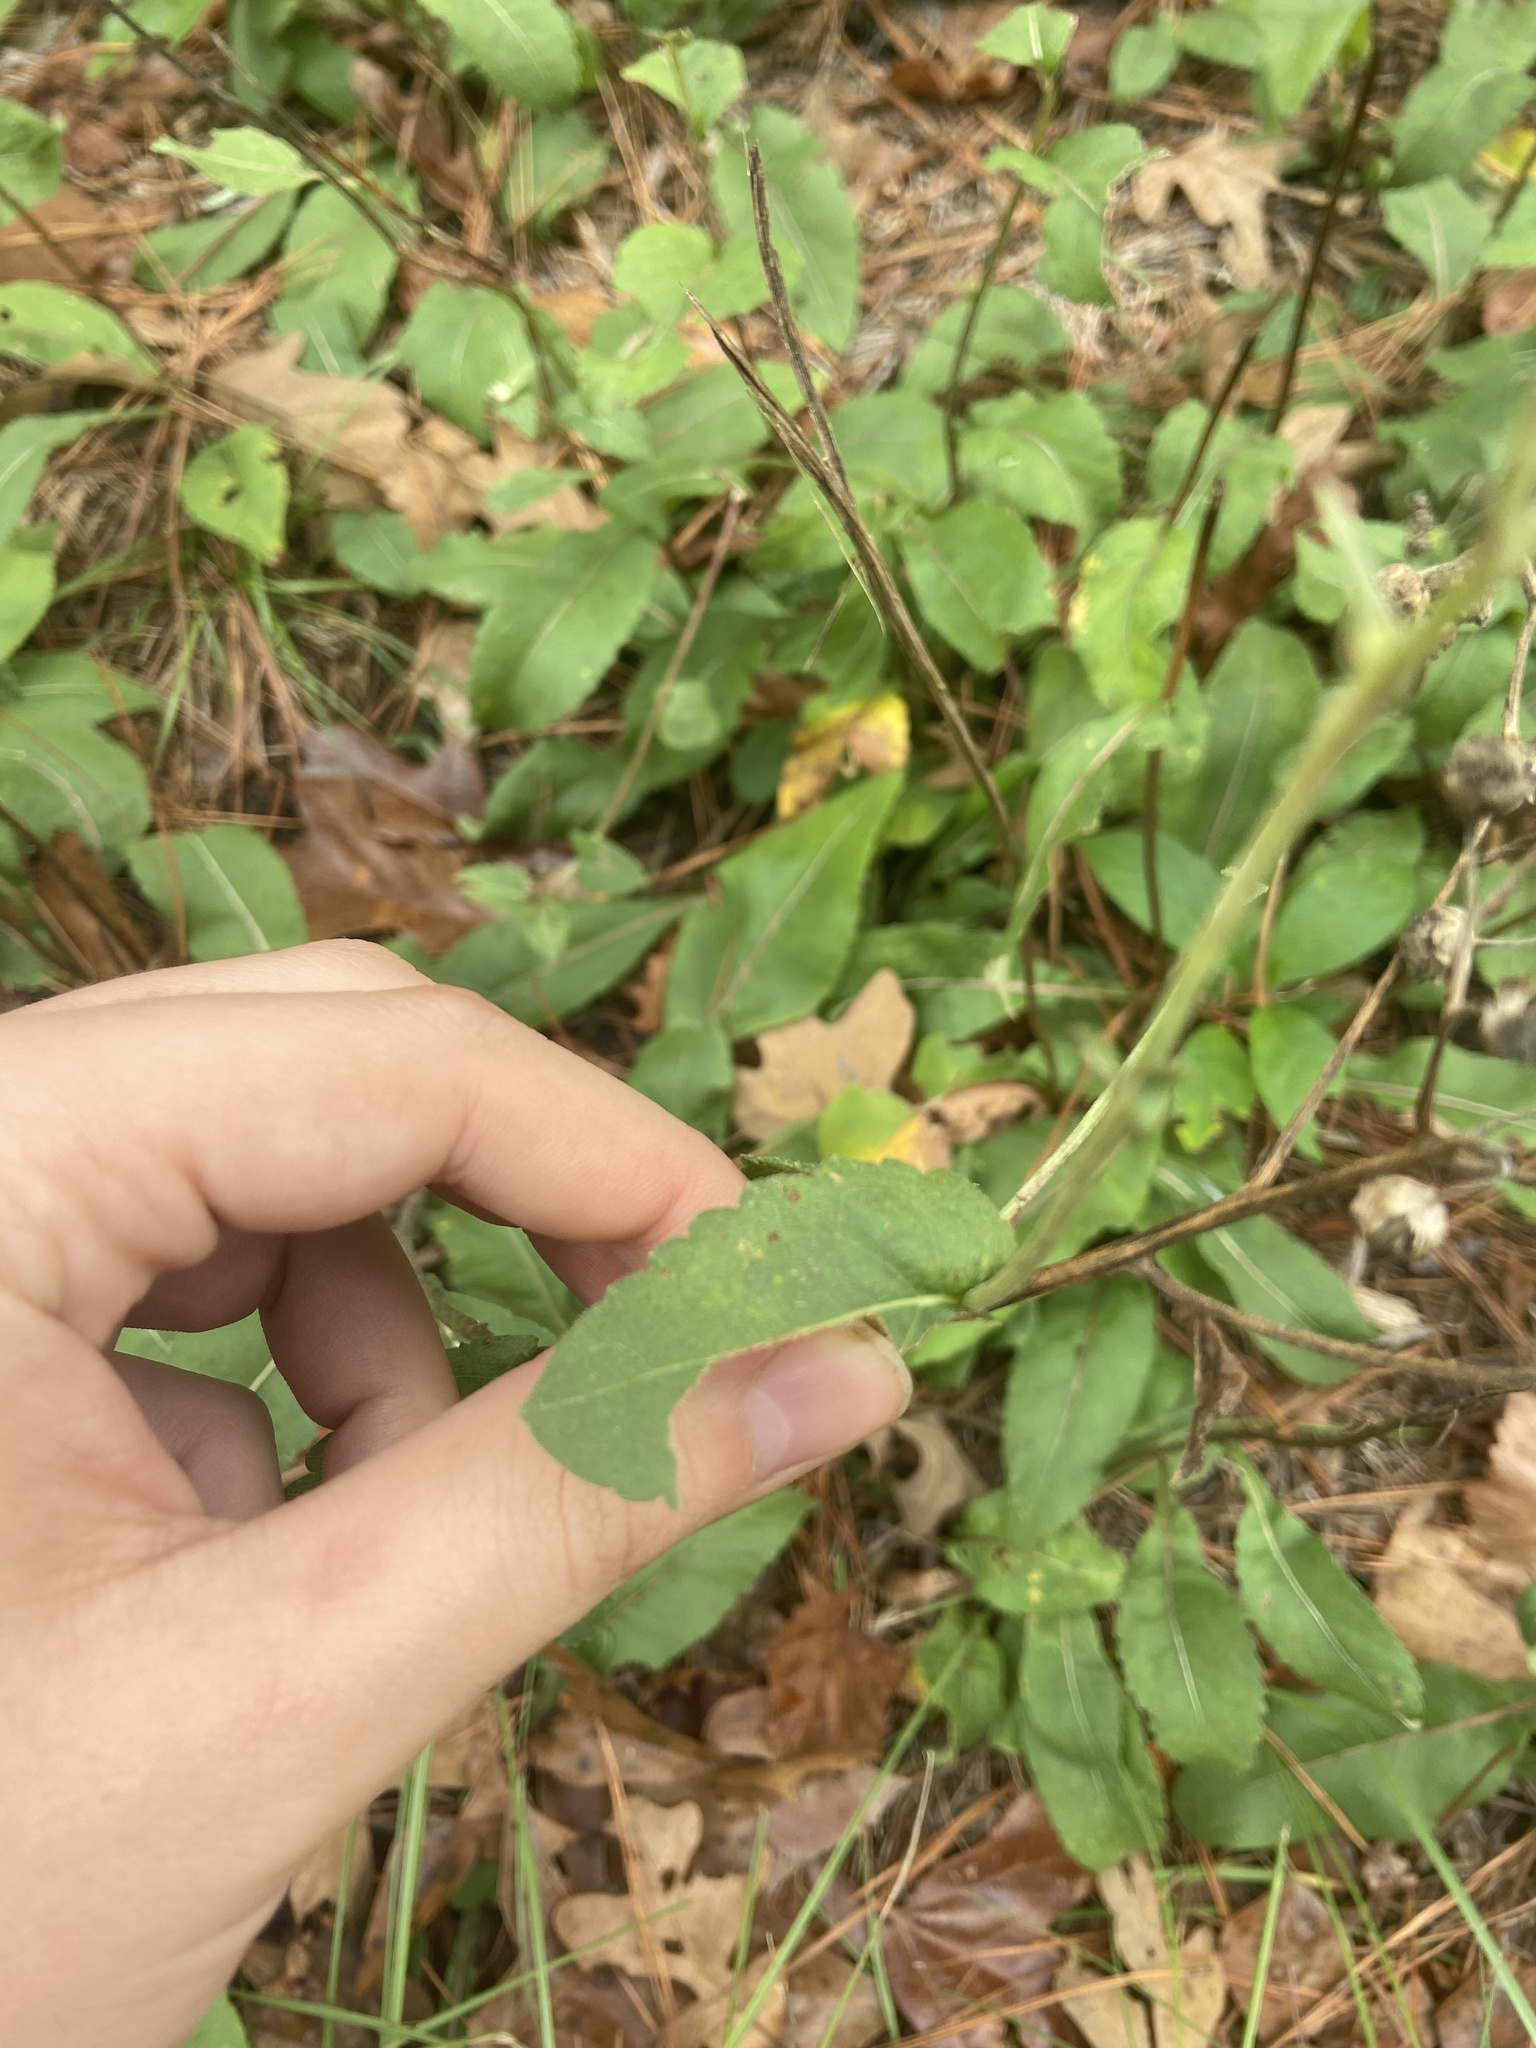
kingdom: Plantae
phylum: Tracheophyta
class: Magnoliopsida
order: Asterales
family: Asteraceae
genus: Parthenium
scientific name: Parthenium integrifolium
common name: American feverfew
